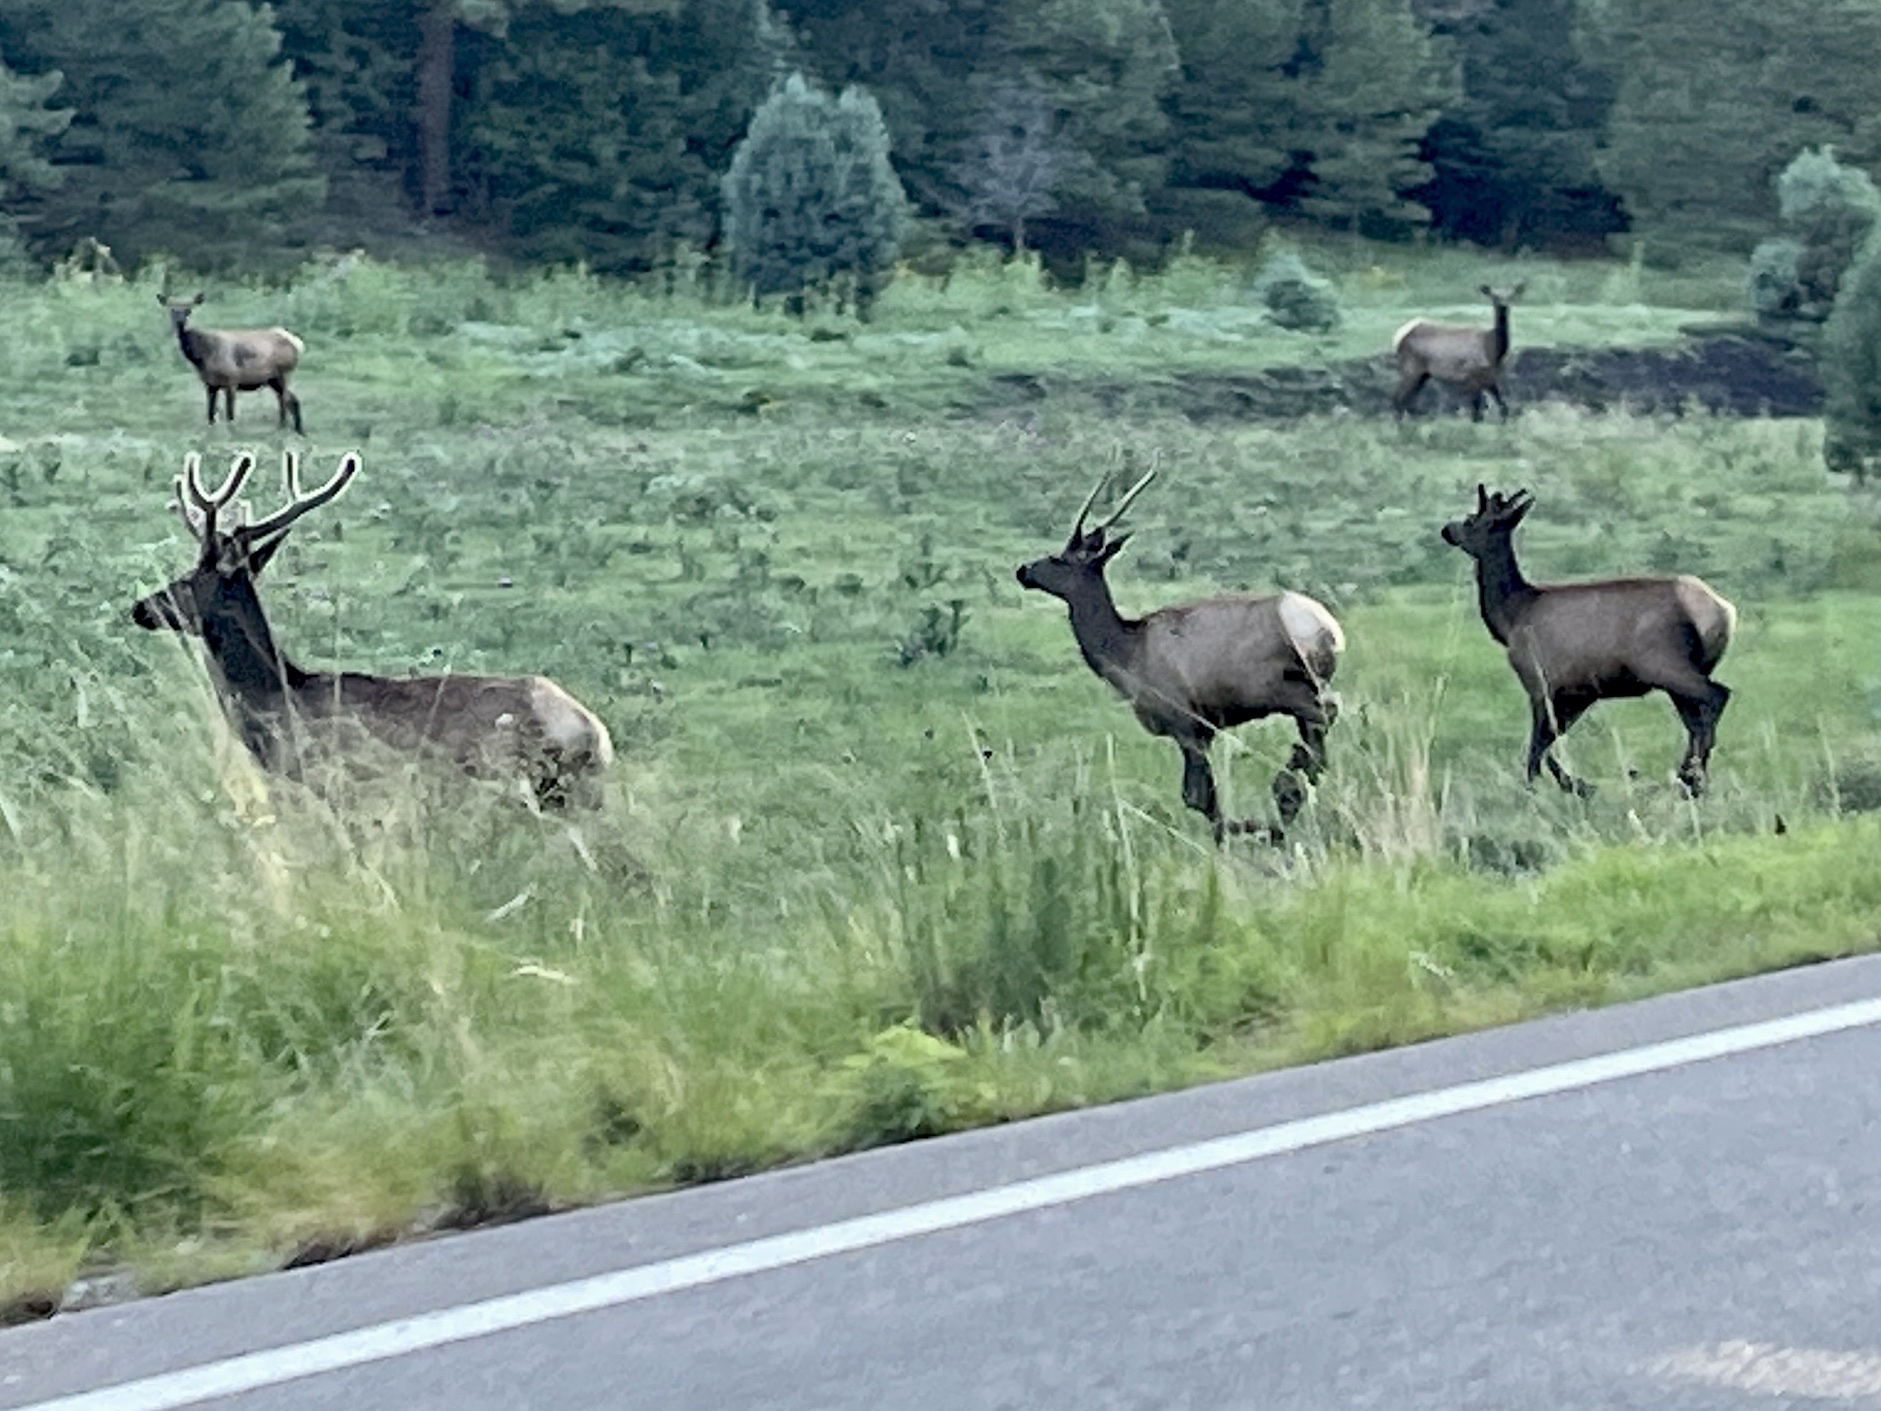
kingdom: Animalia
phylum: Chordata
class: Mammalia
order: Artiodactyla
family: Cervidae
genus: Cervus
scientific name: Cervus elaphus
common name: Red deer
